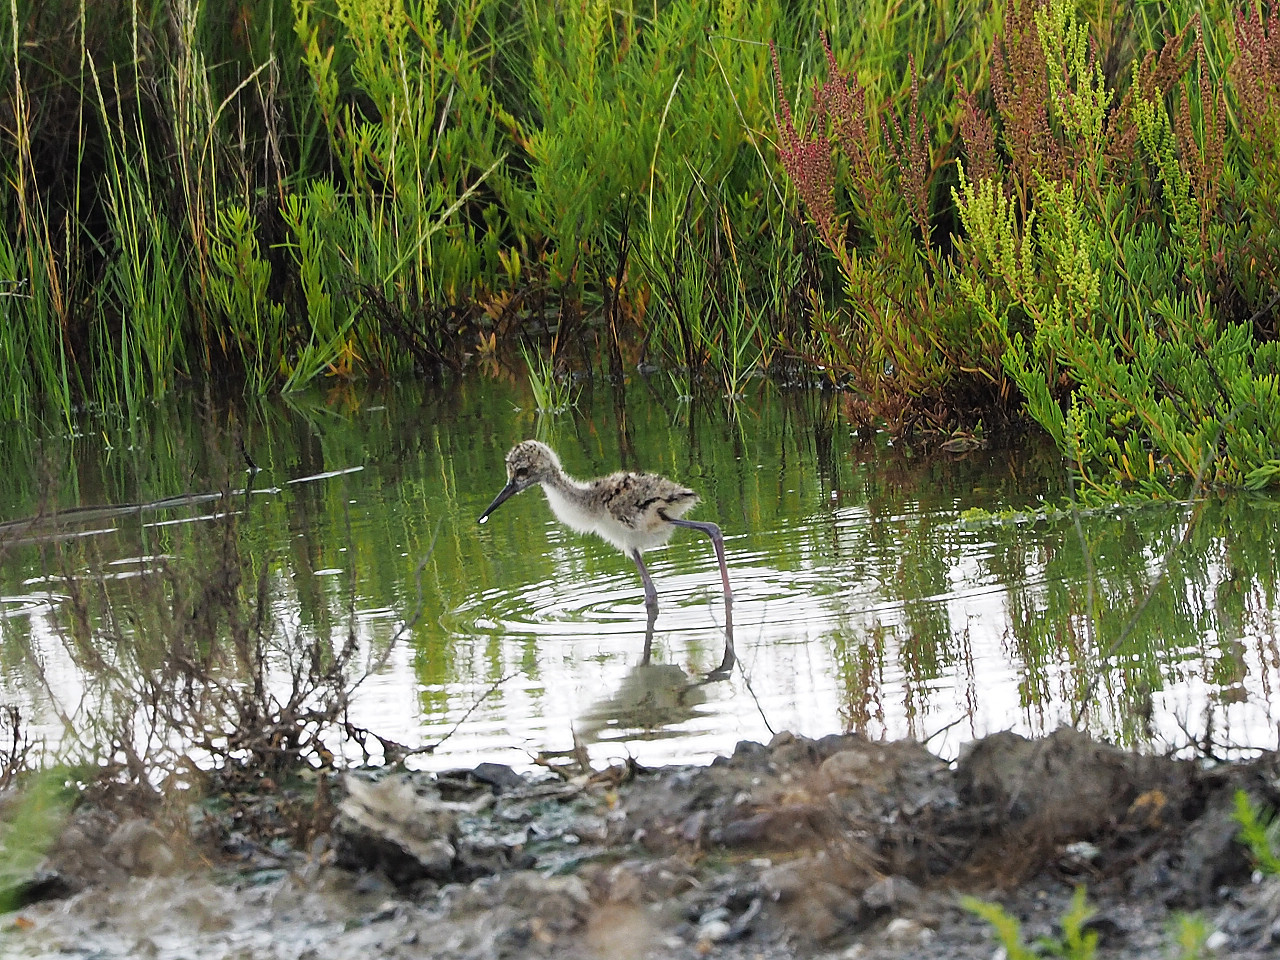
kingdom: Animalia
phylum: Chordata
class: Aves
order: Charadriiformes
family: Recurvirostridae
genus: Himantopus
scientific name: Himantopus himantopus
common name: Black-winged stilt
